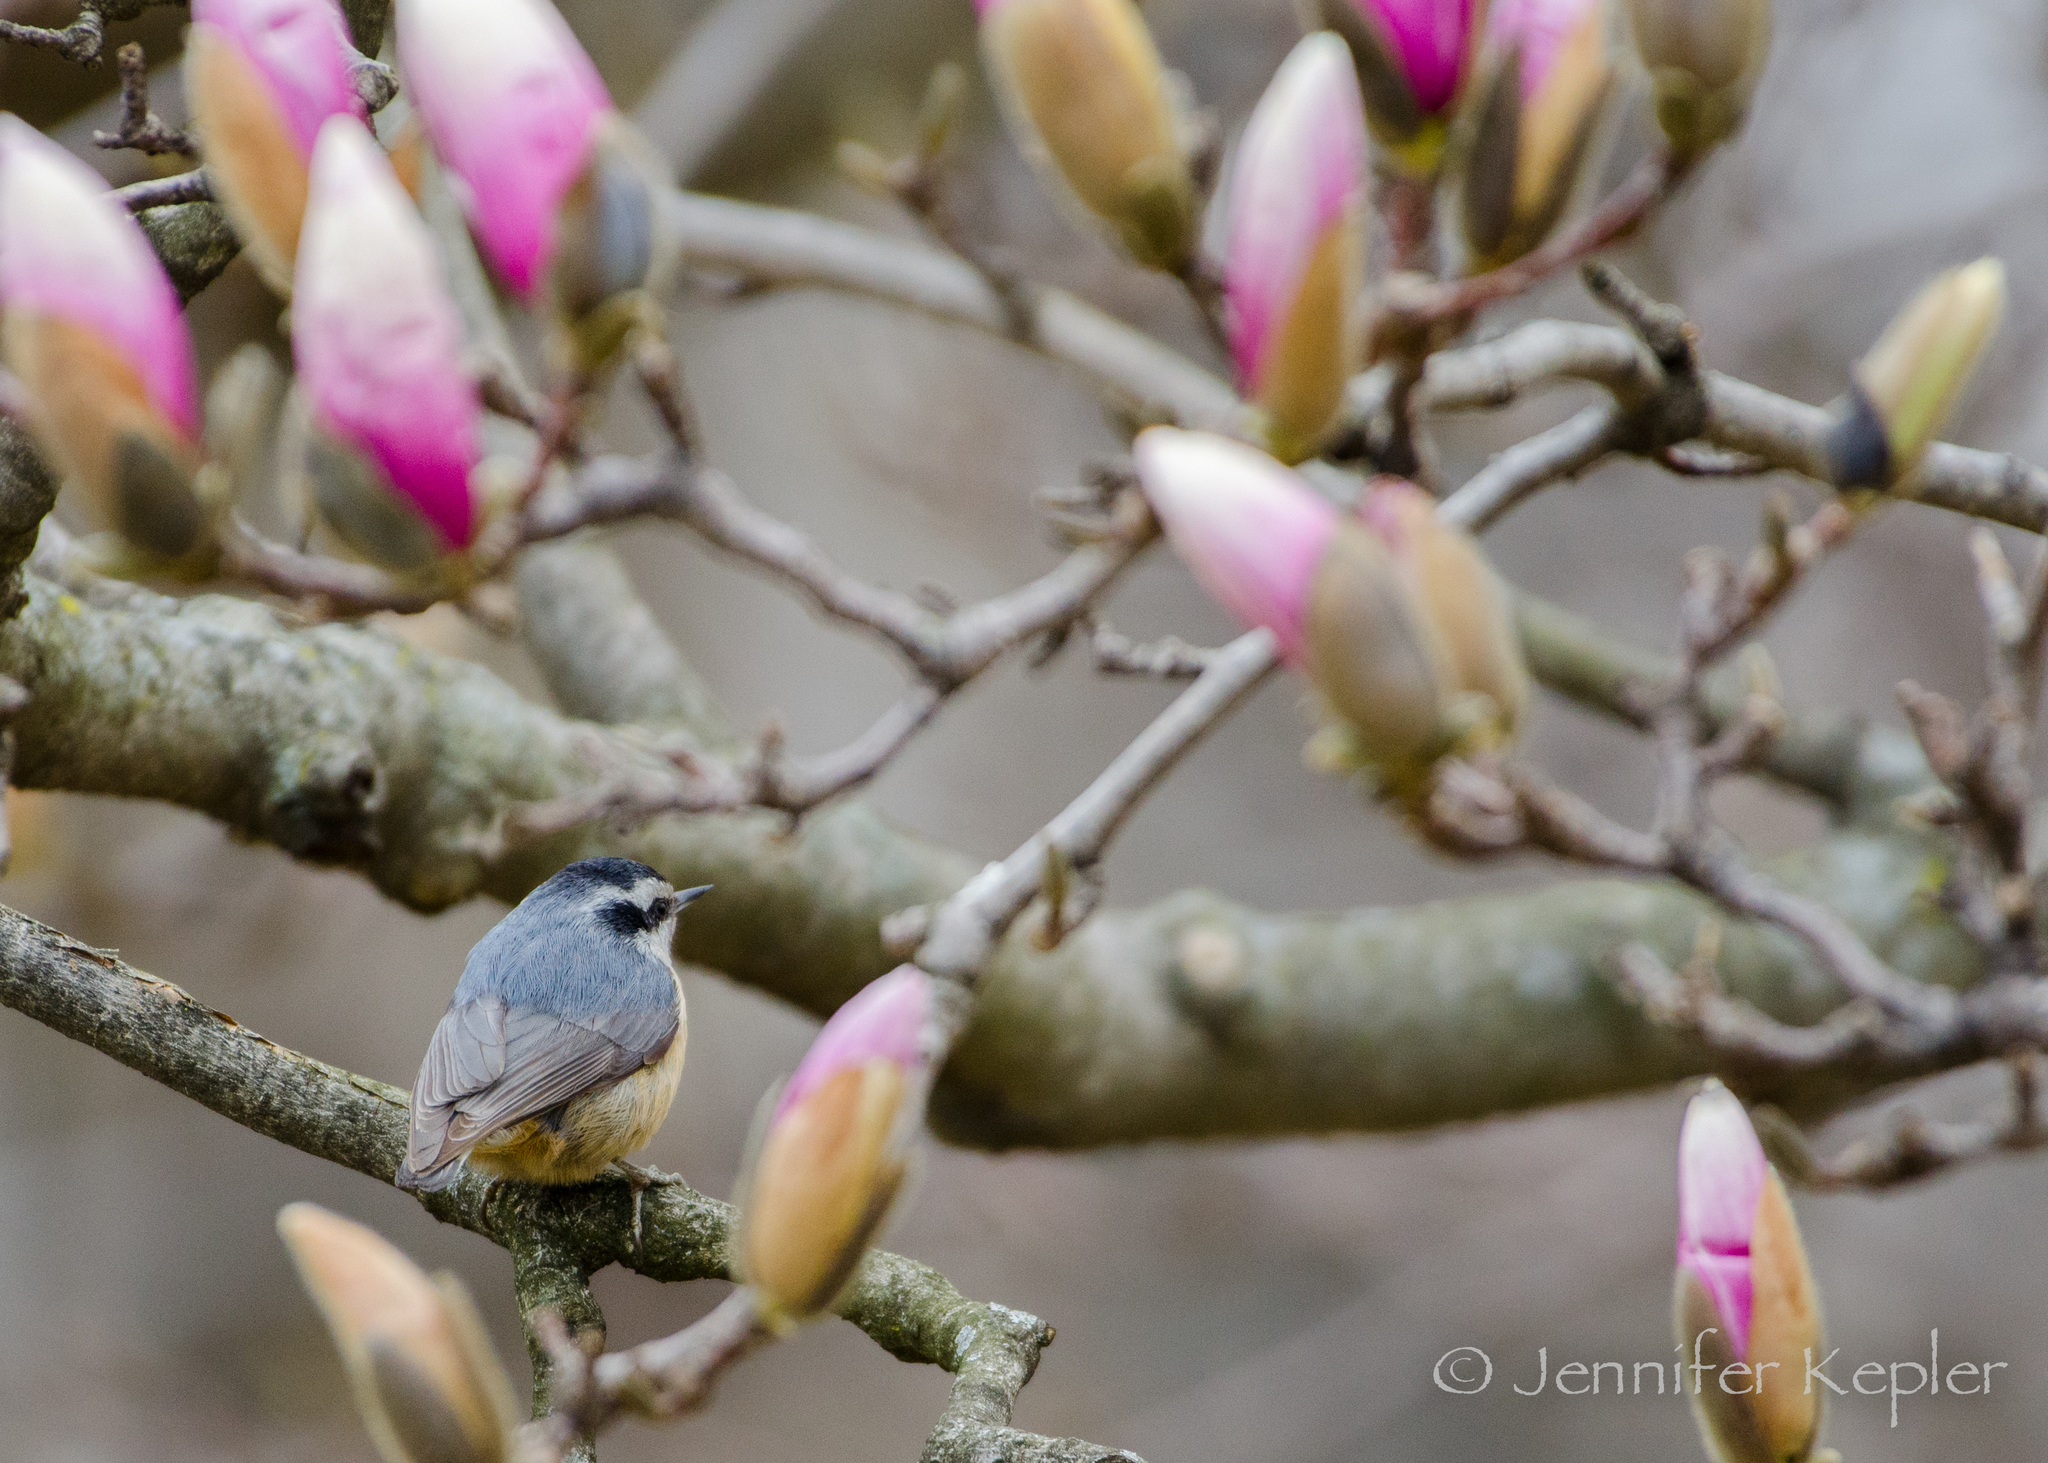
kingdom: Animalia
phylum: Chordata
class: Aves
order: Passeriformes
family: Sittidae
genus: Sitta
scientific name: Sitta canadensis
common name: Red-breasted nuthatch
